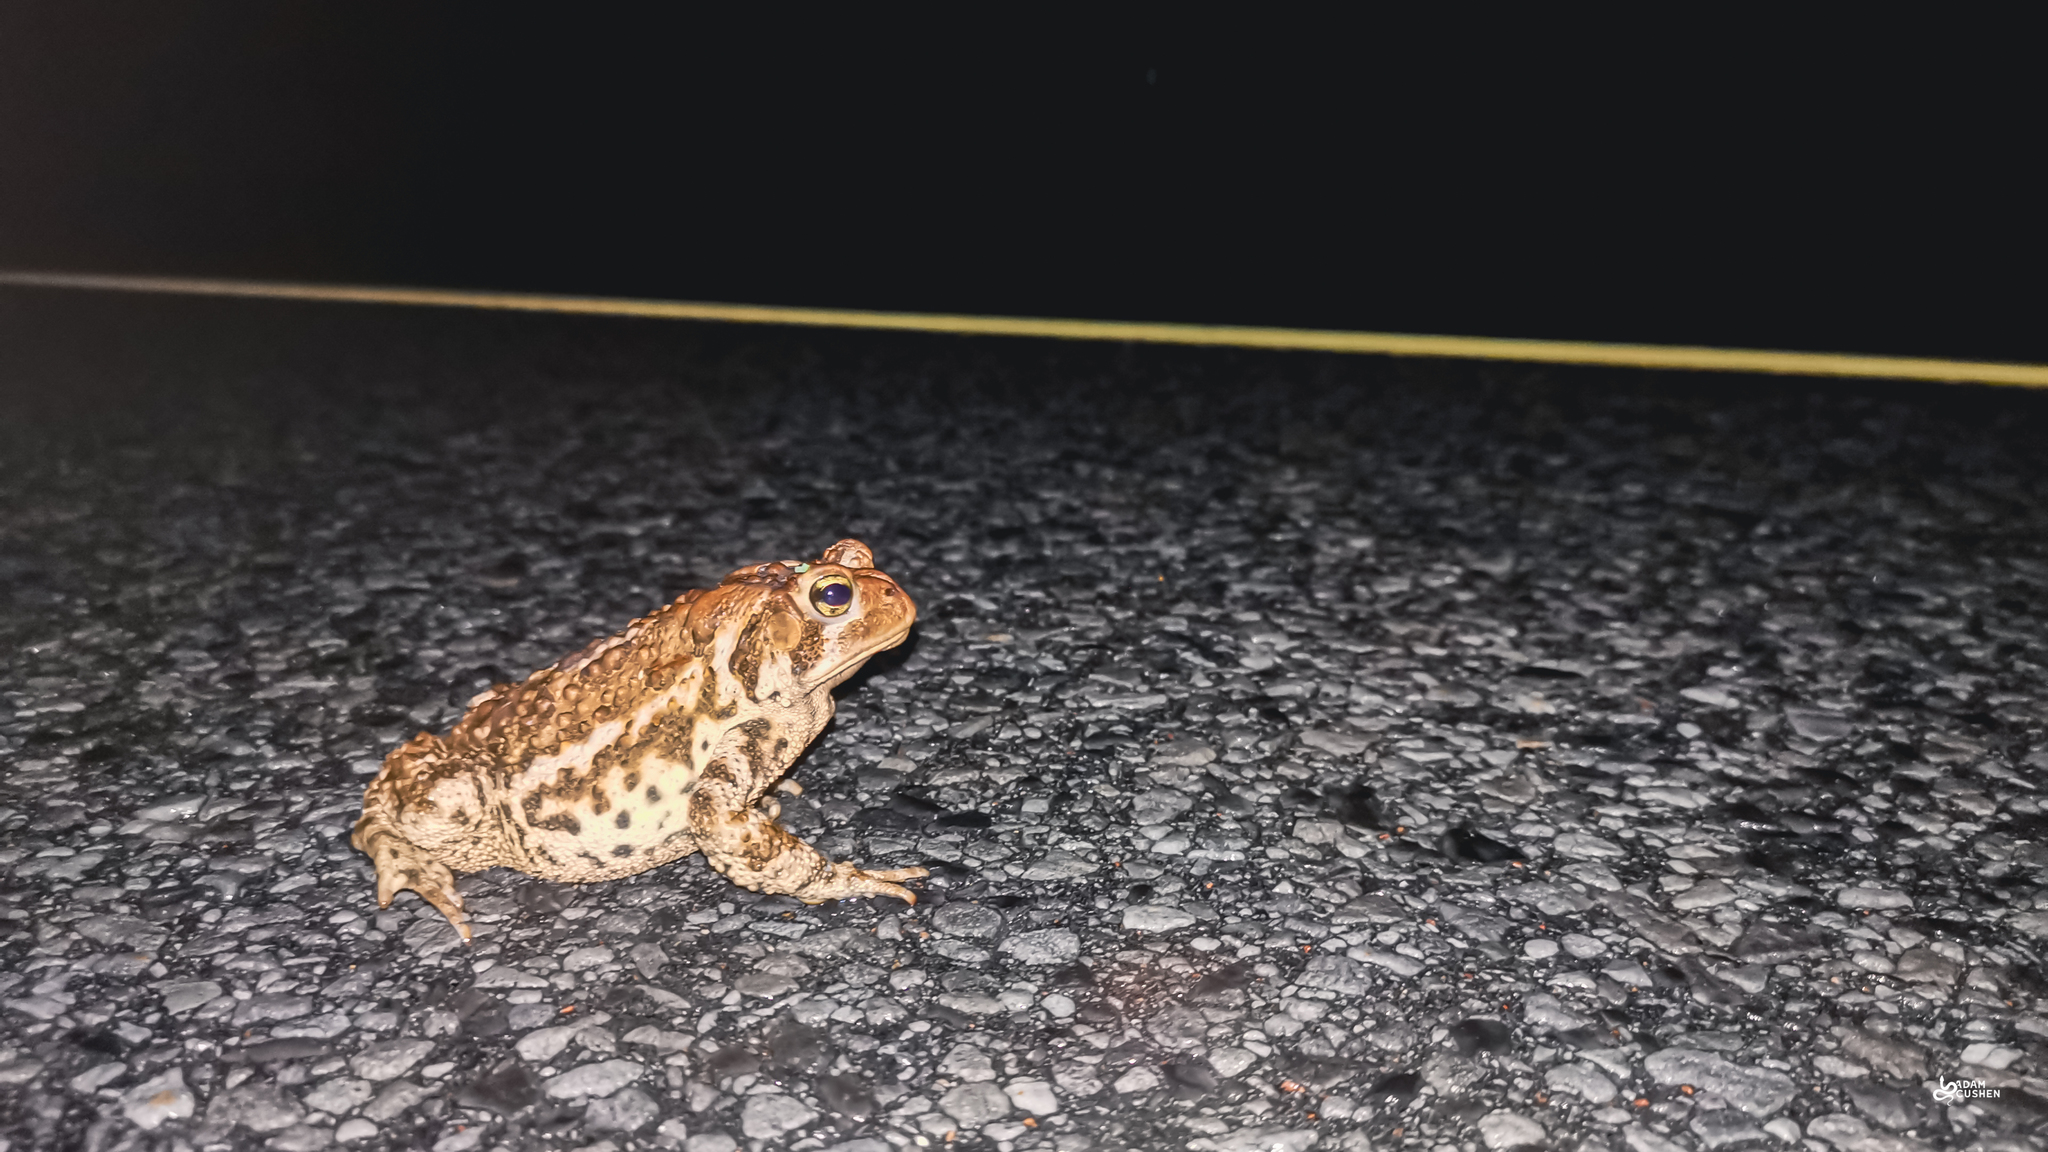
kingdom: Animalia
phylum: Chordata
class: Amphibia
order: Anura
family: Bufonidae
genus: Anaxyrus
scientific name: Anaxyrus americanus
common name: American toad
